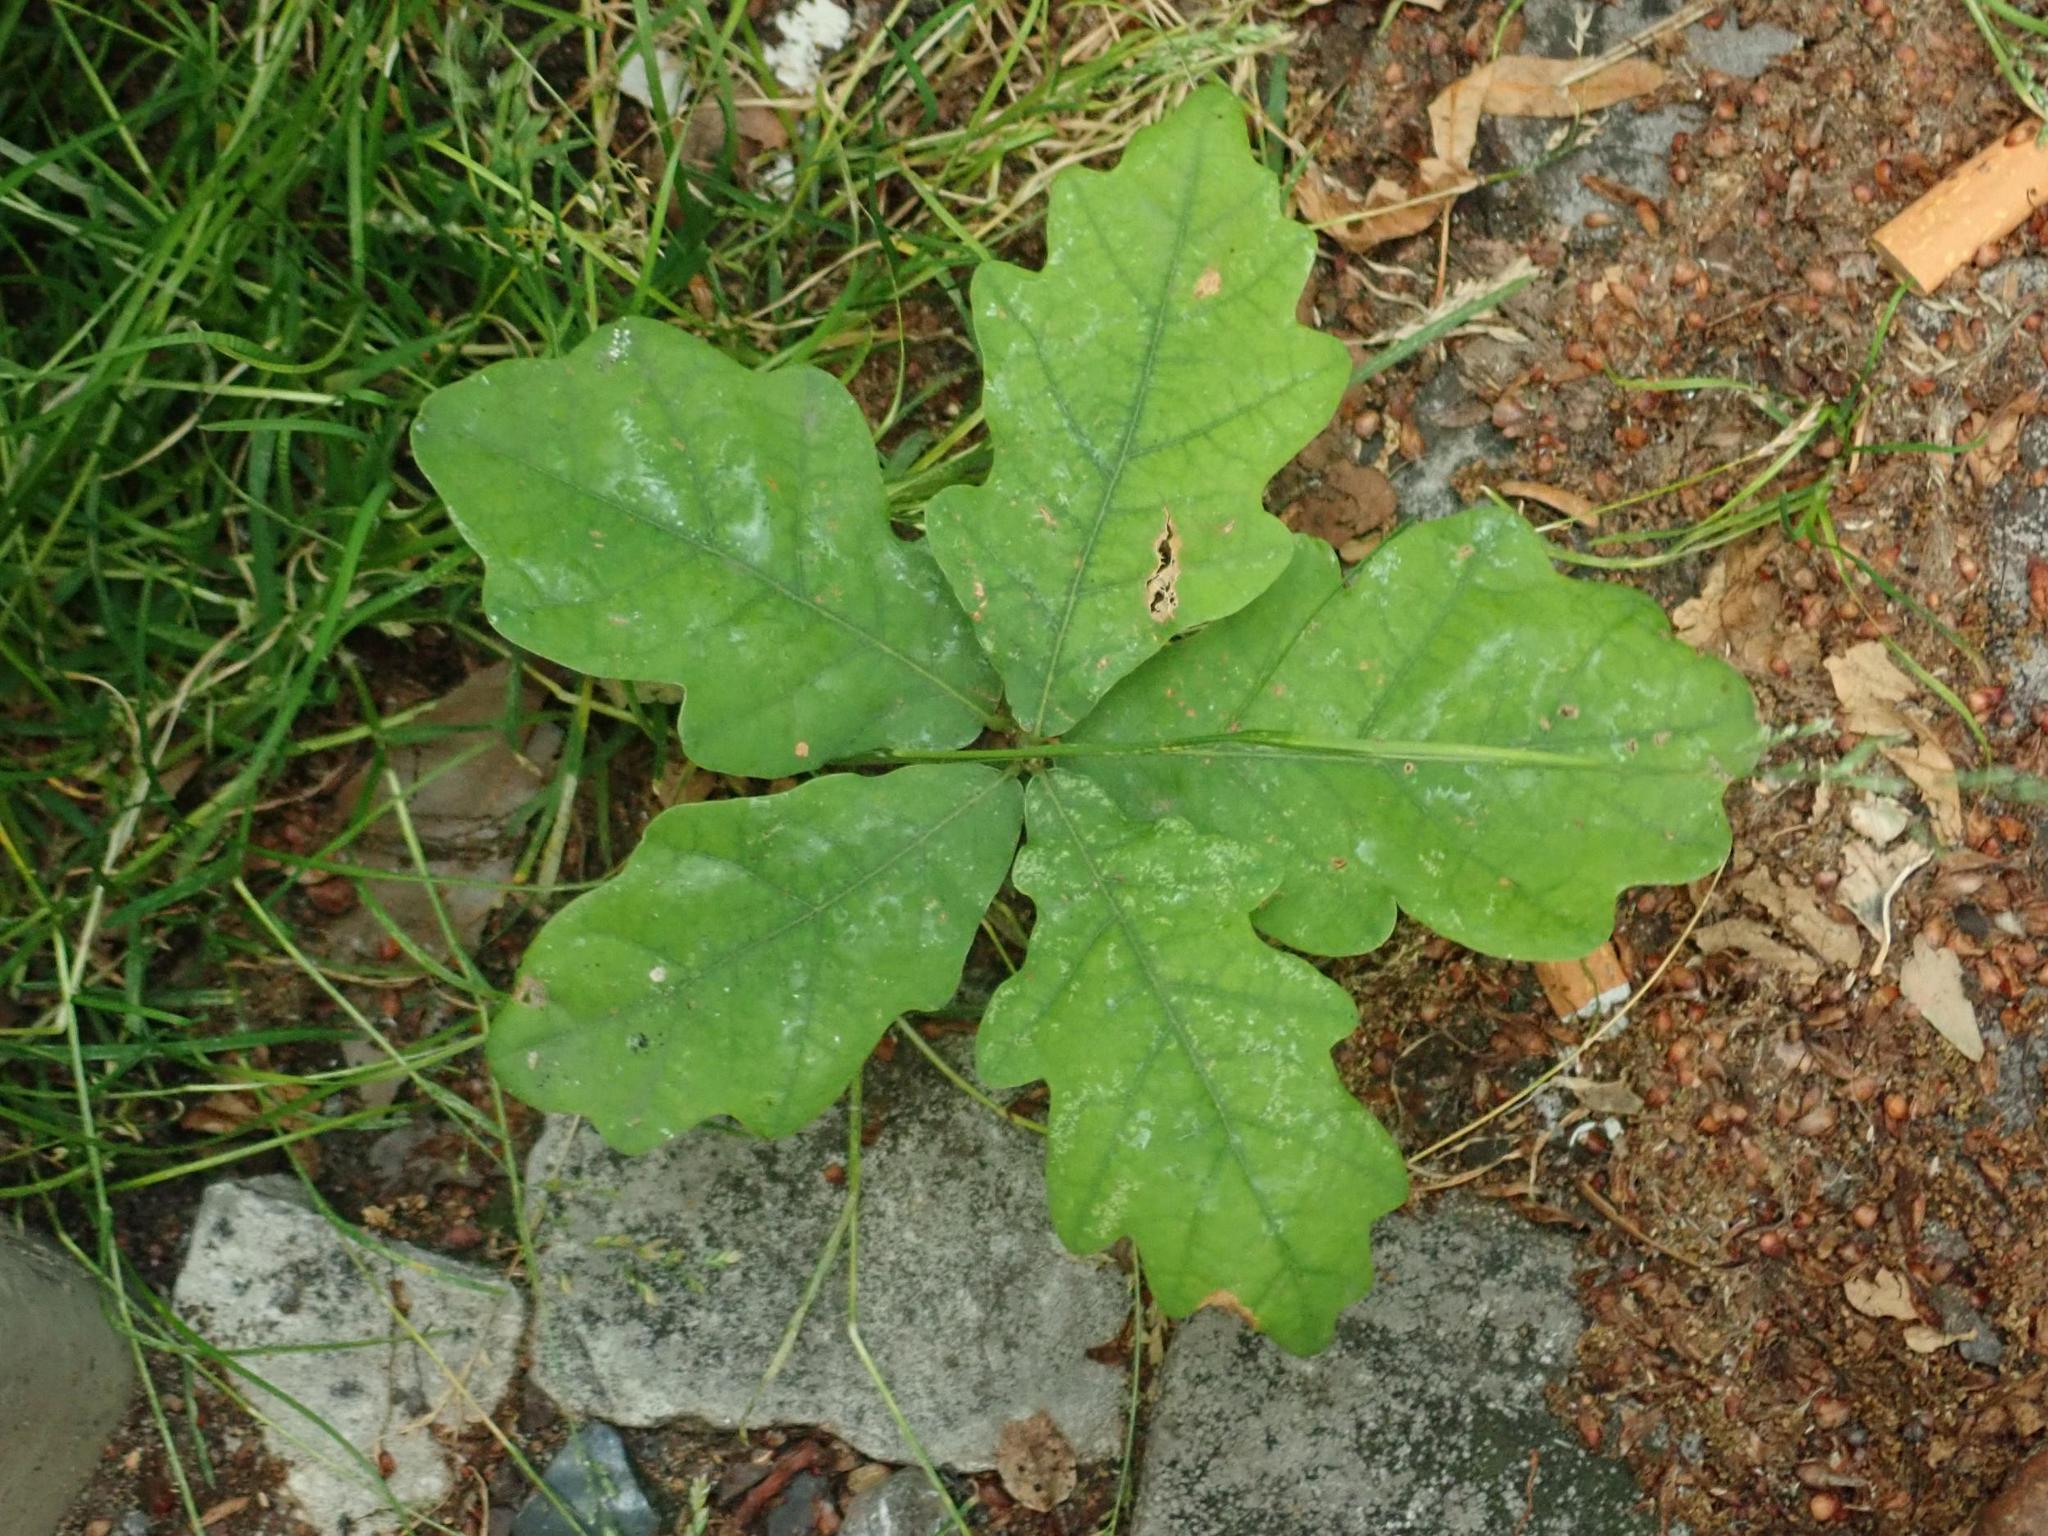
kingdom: Plantae
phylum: Tracheophyta
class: Magnoliopsida
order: Fagales
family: Fagaceae
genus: Quercus
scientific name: Quercus robur
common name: Pedunculate oak
